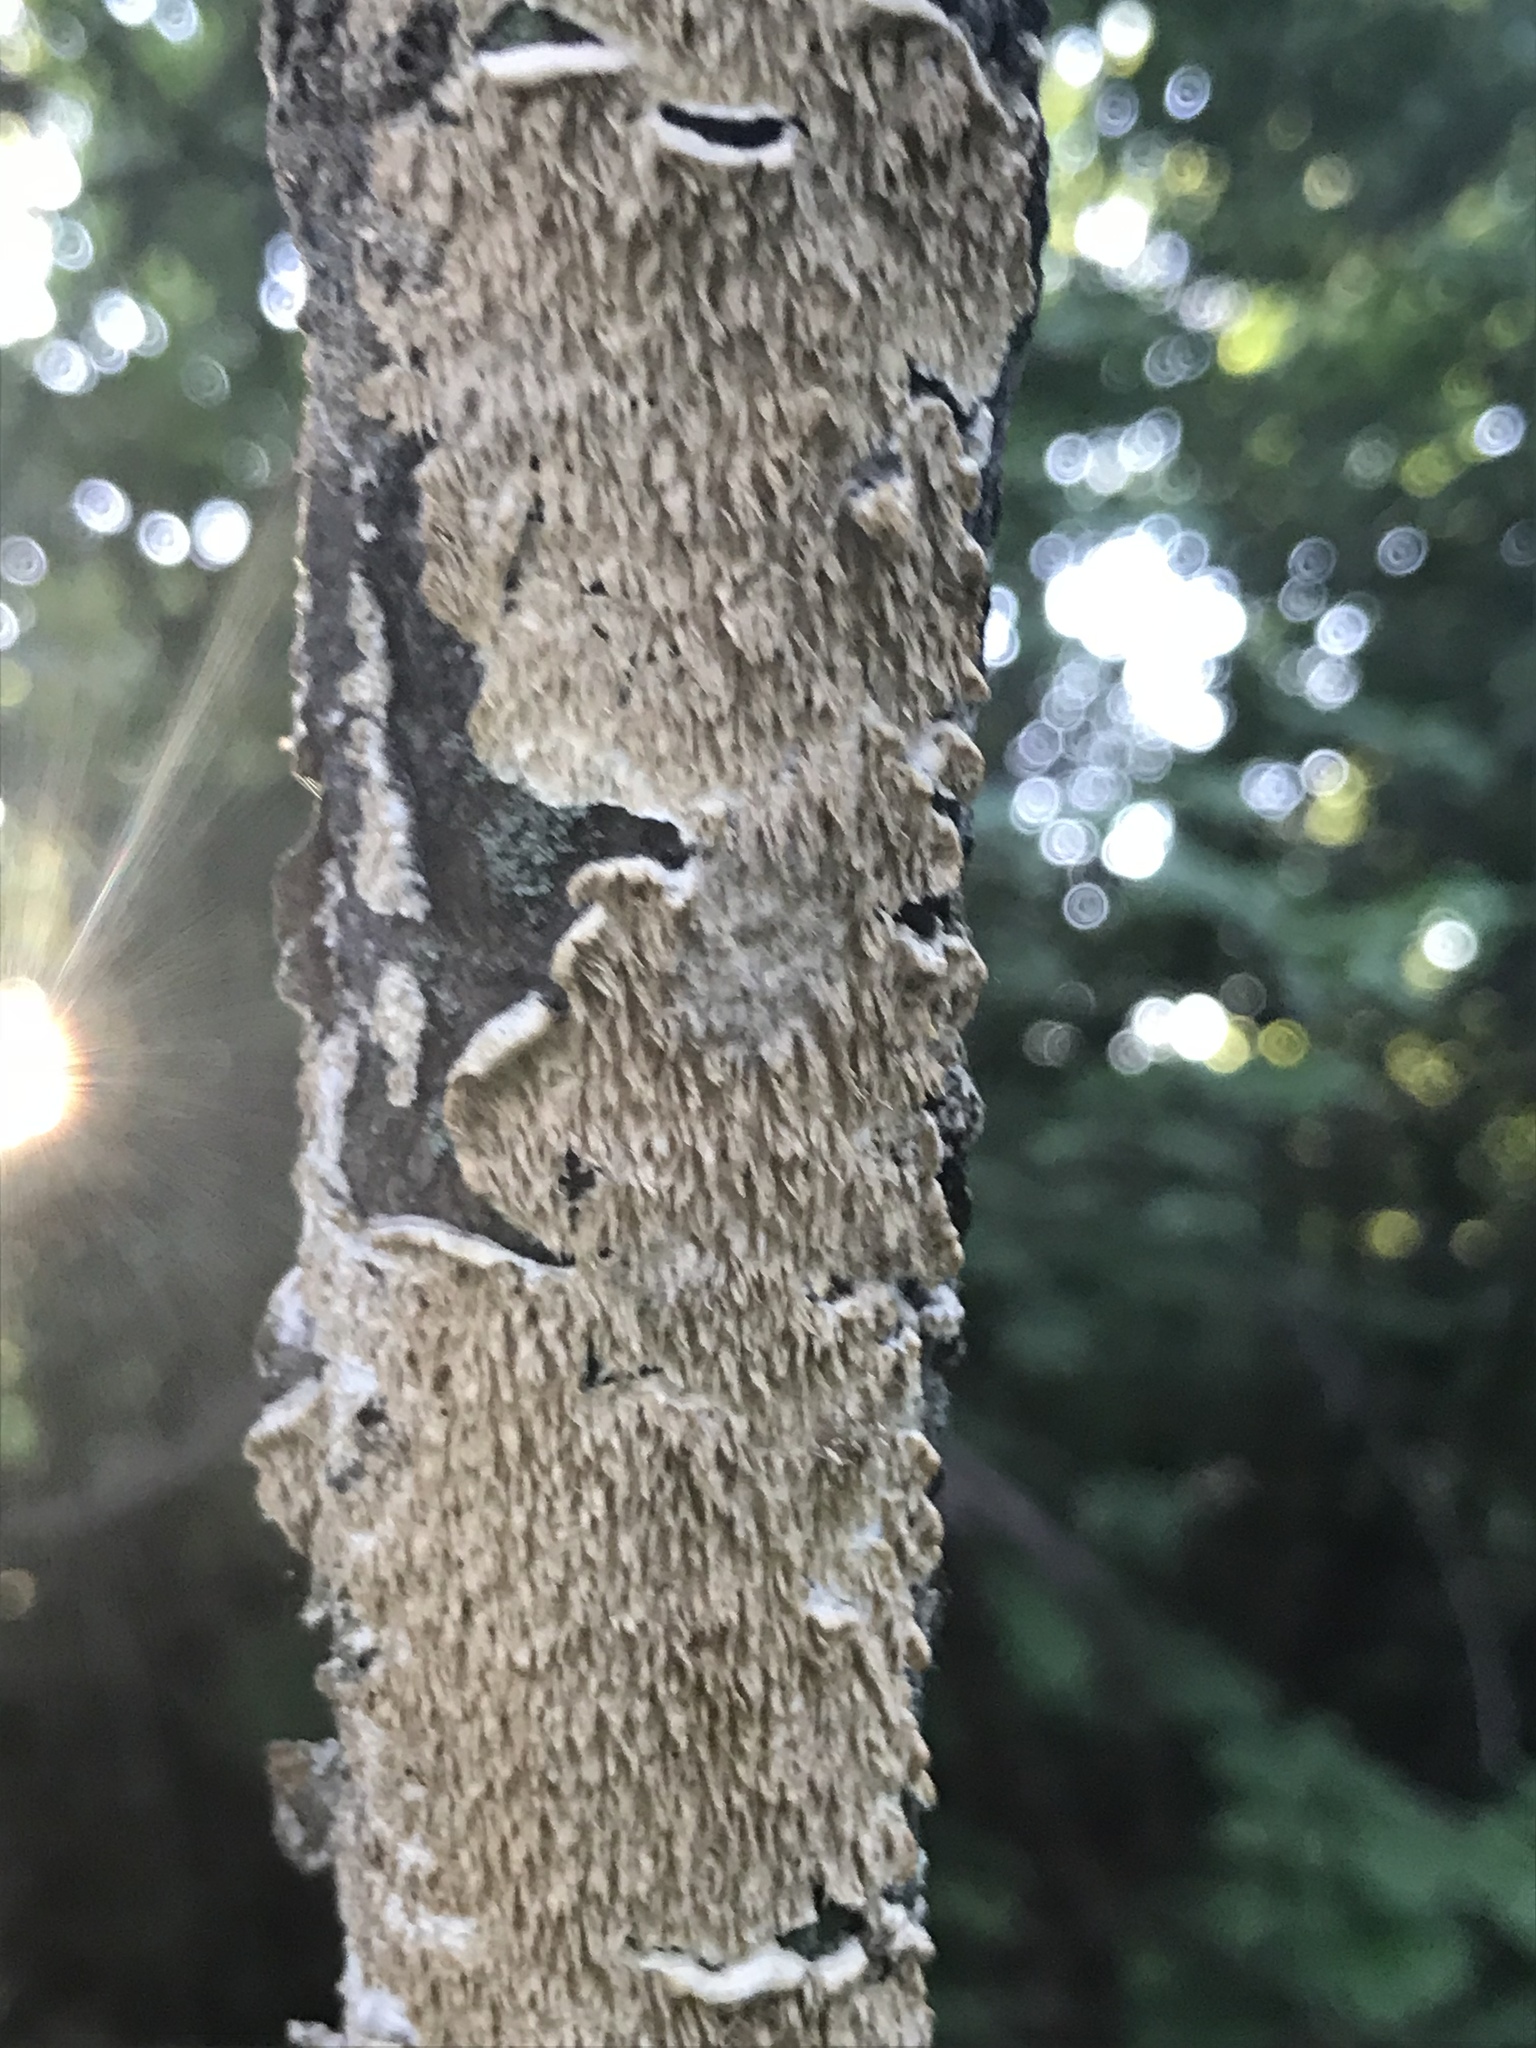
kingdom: Fungi
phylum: Basidiomycota
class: Agaricomycetes
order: Polyporales
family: Irpicaceae
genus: Irpex
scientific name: Irpex lacteus
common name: Milk-white toothed polypore
